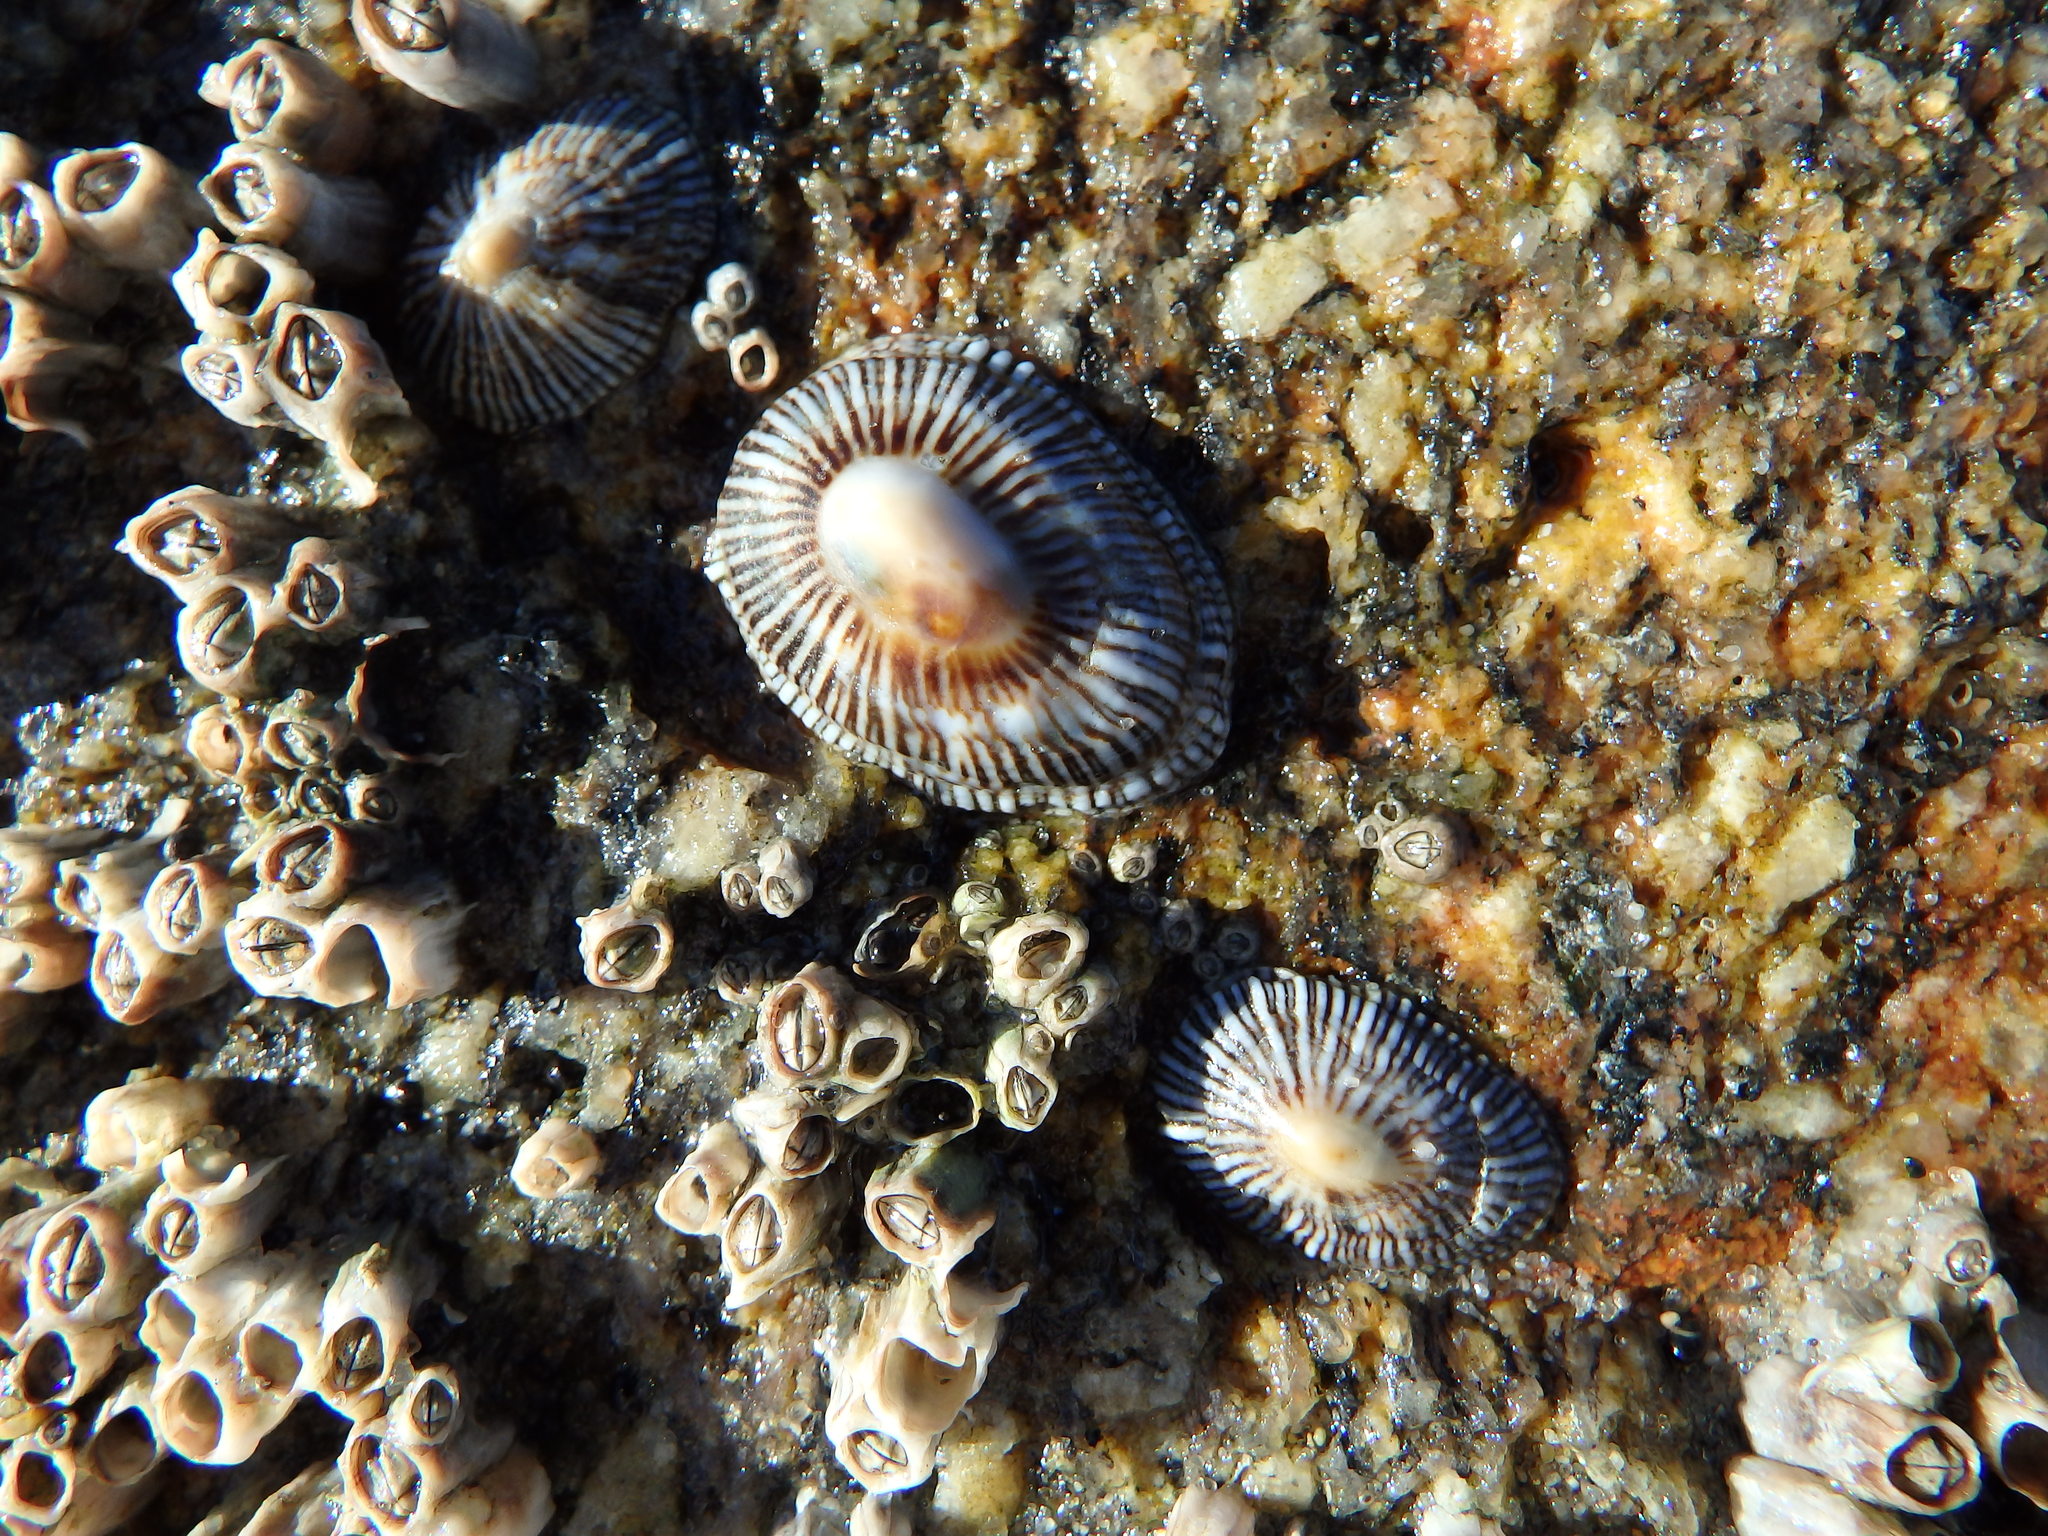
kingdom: Animalia
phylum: Mollusca
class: Gastropoda
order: Siphonariida
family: Siphonariidae
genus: Siphonaria
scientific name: Siphonaria pectinata
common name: Striped false limpet
